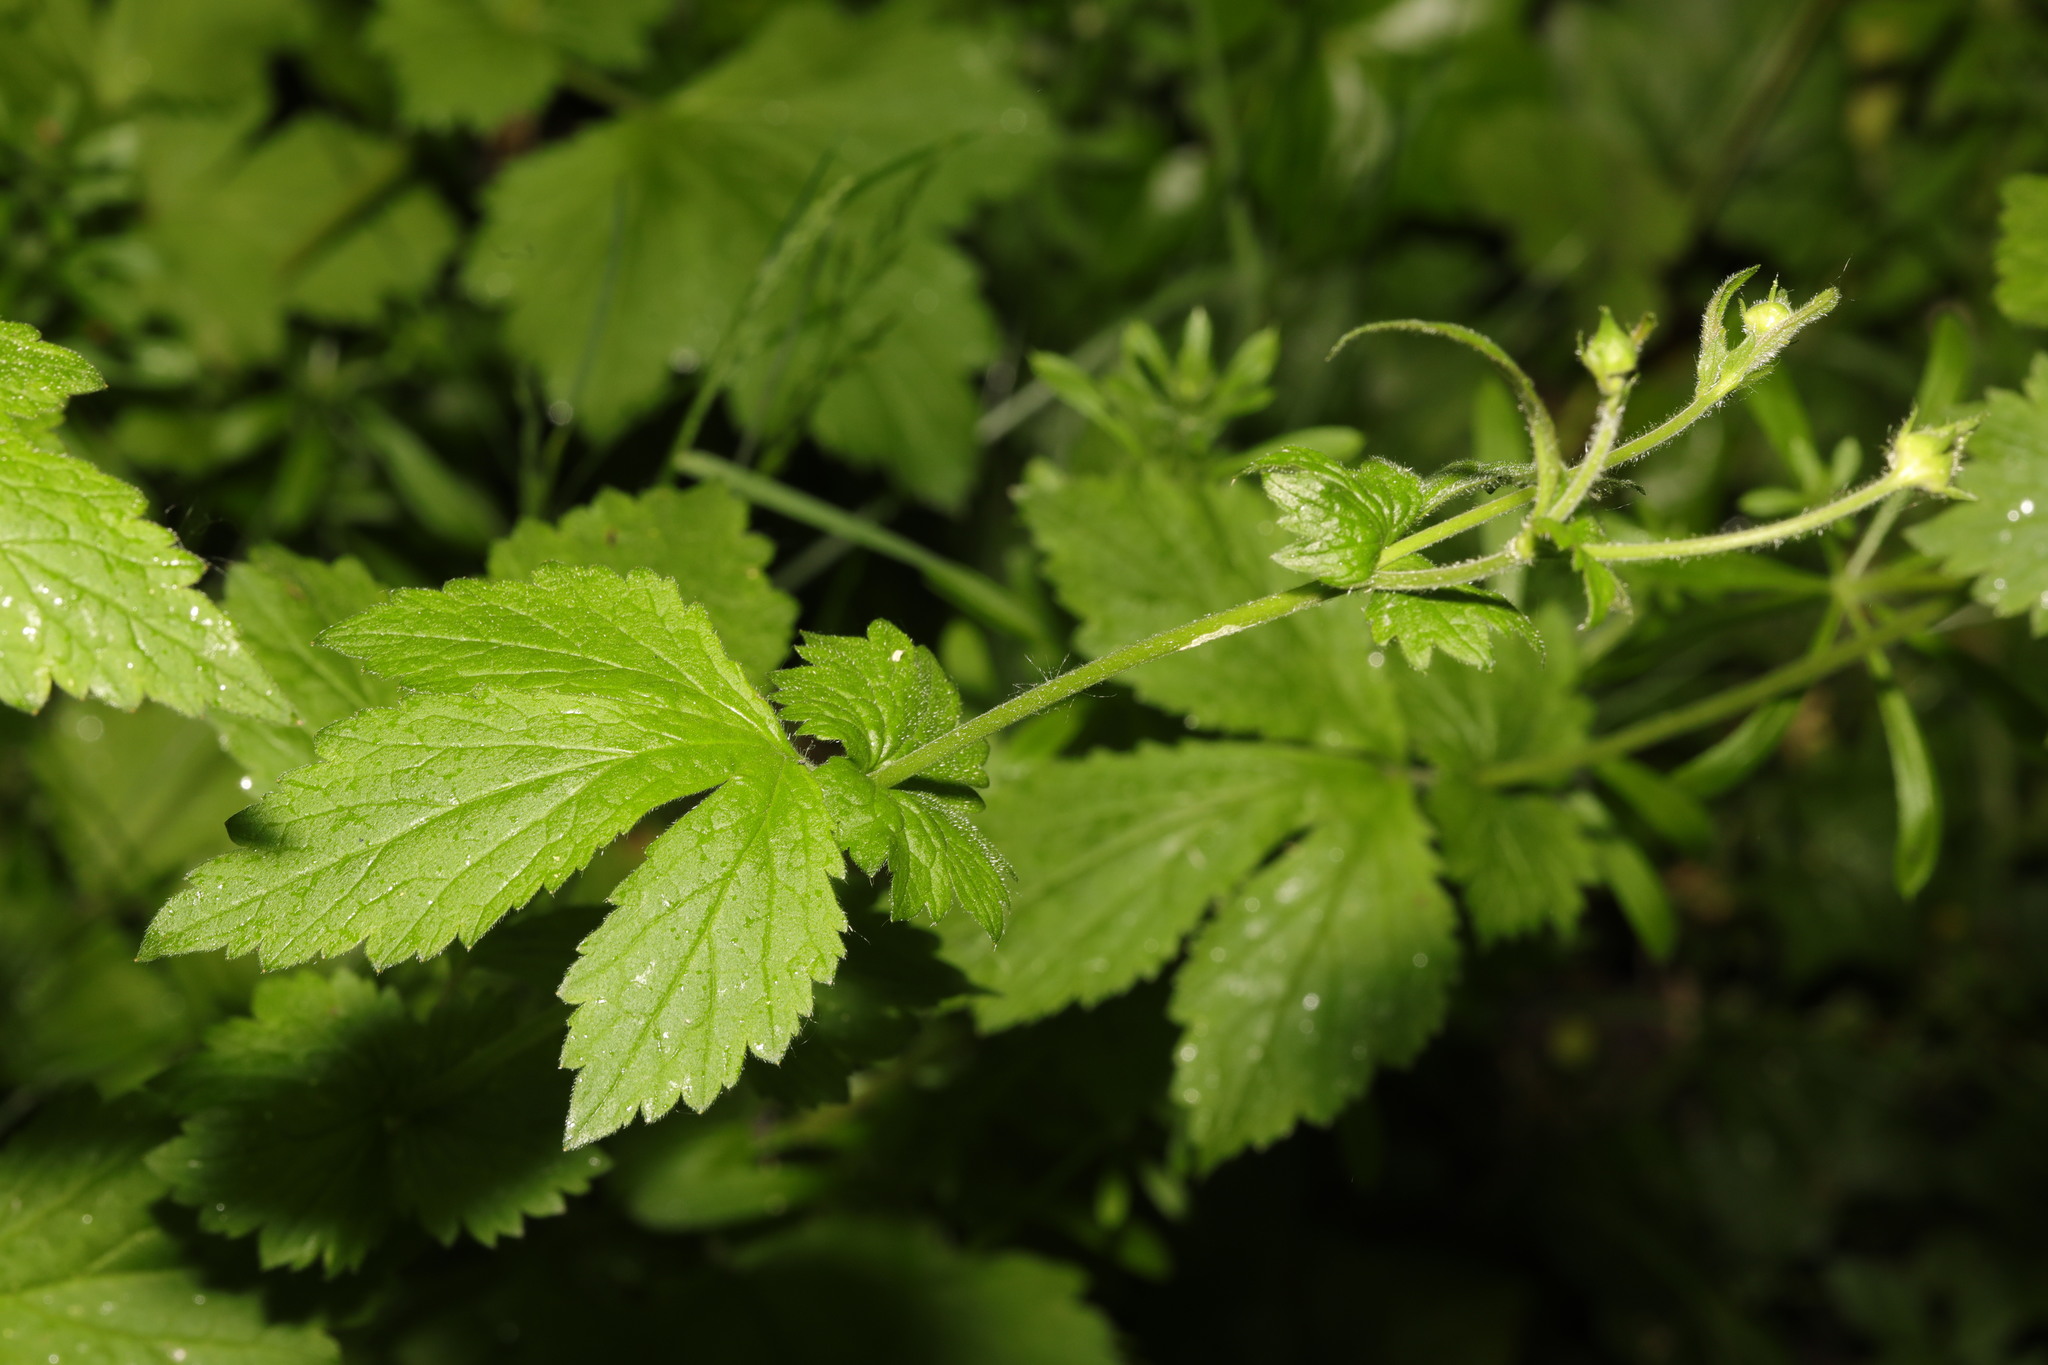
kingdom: Plantae
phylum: Tracheophyta
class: Magnoliopsida
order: Rosales
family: Rosaceae
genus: Geum
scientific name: Geum urbanum
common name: Wood avens
